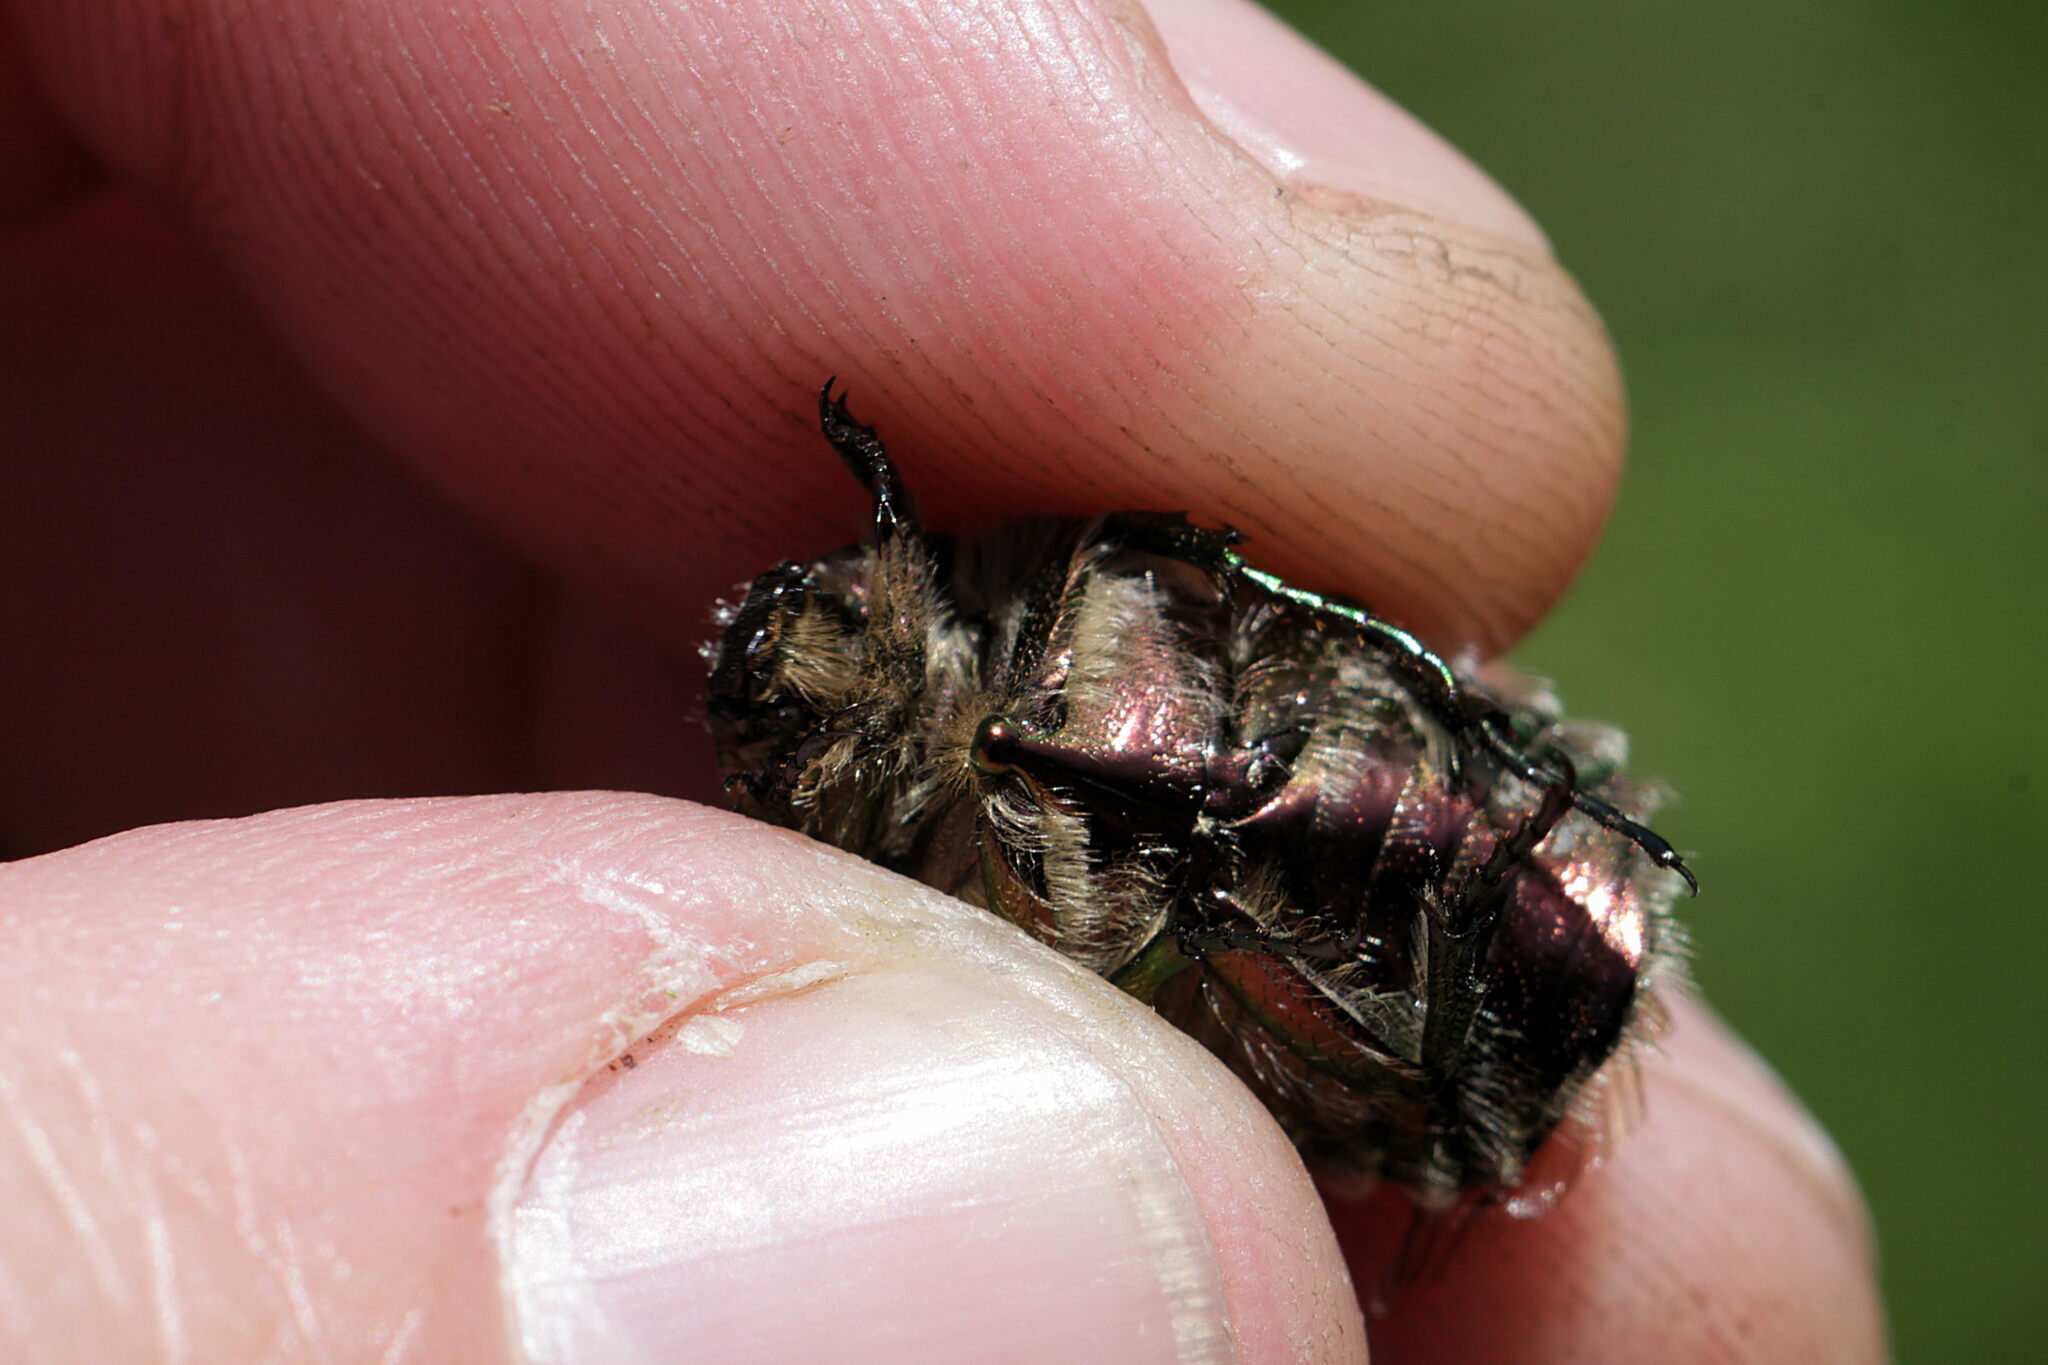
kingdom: Animalia
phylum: Arthropoda
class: Insecta
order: Coleoptera
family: Scarabaeidae
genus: Cetonia
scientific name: Cetonia aurata
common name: Rose chafer
